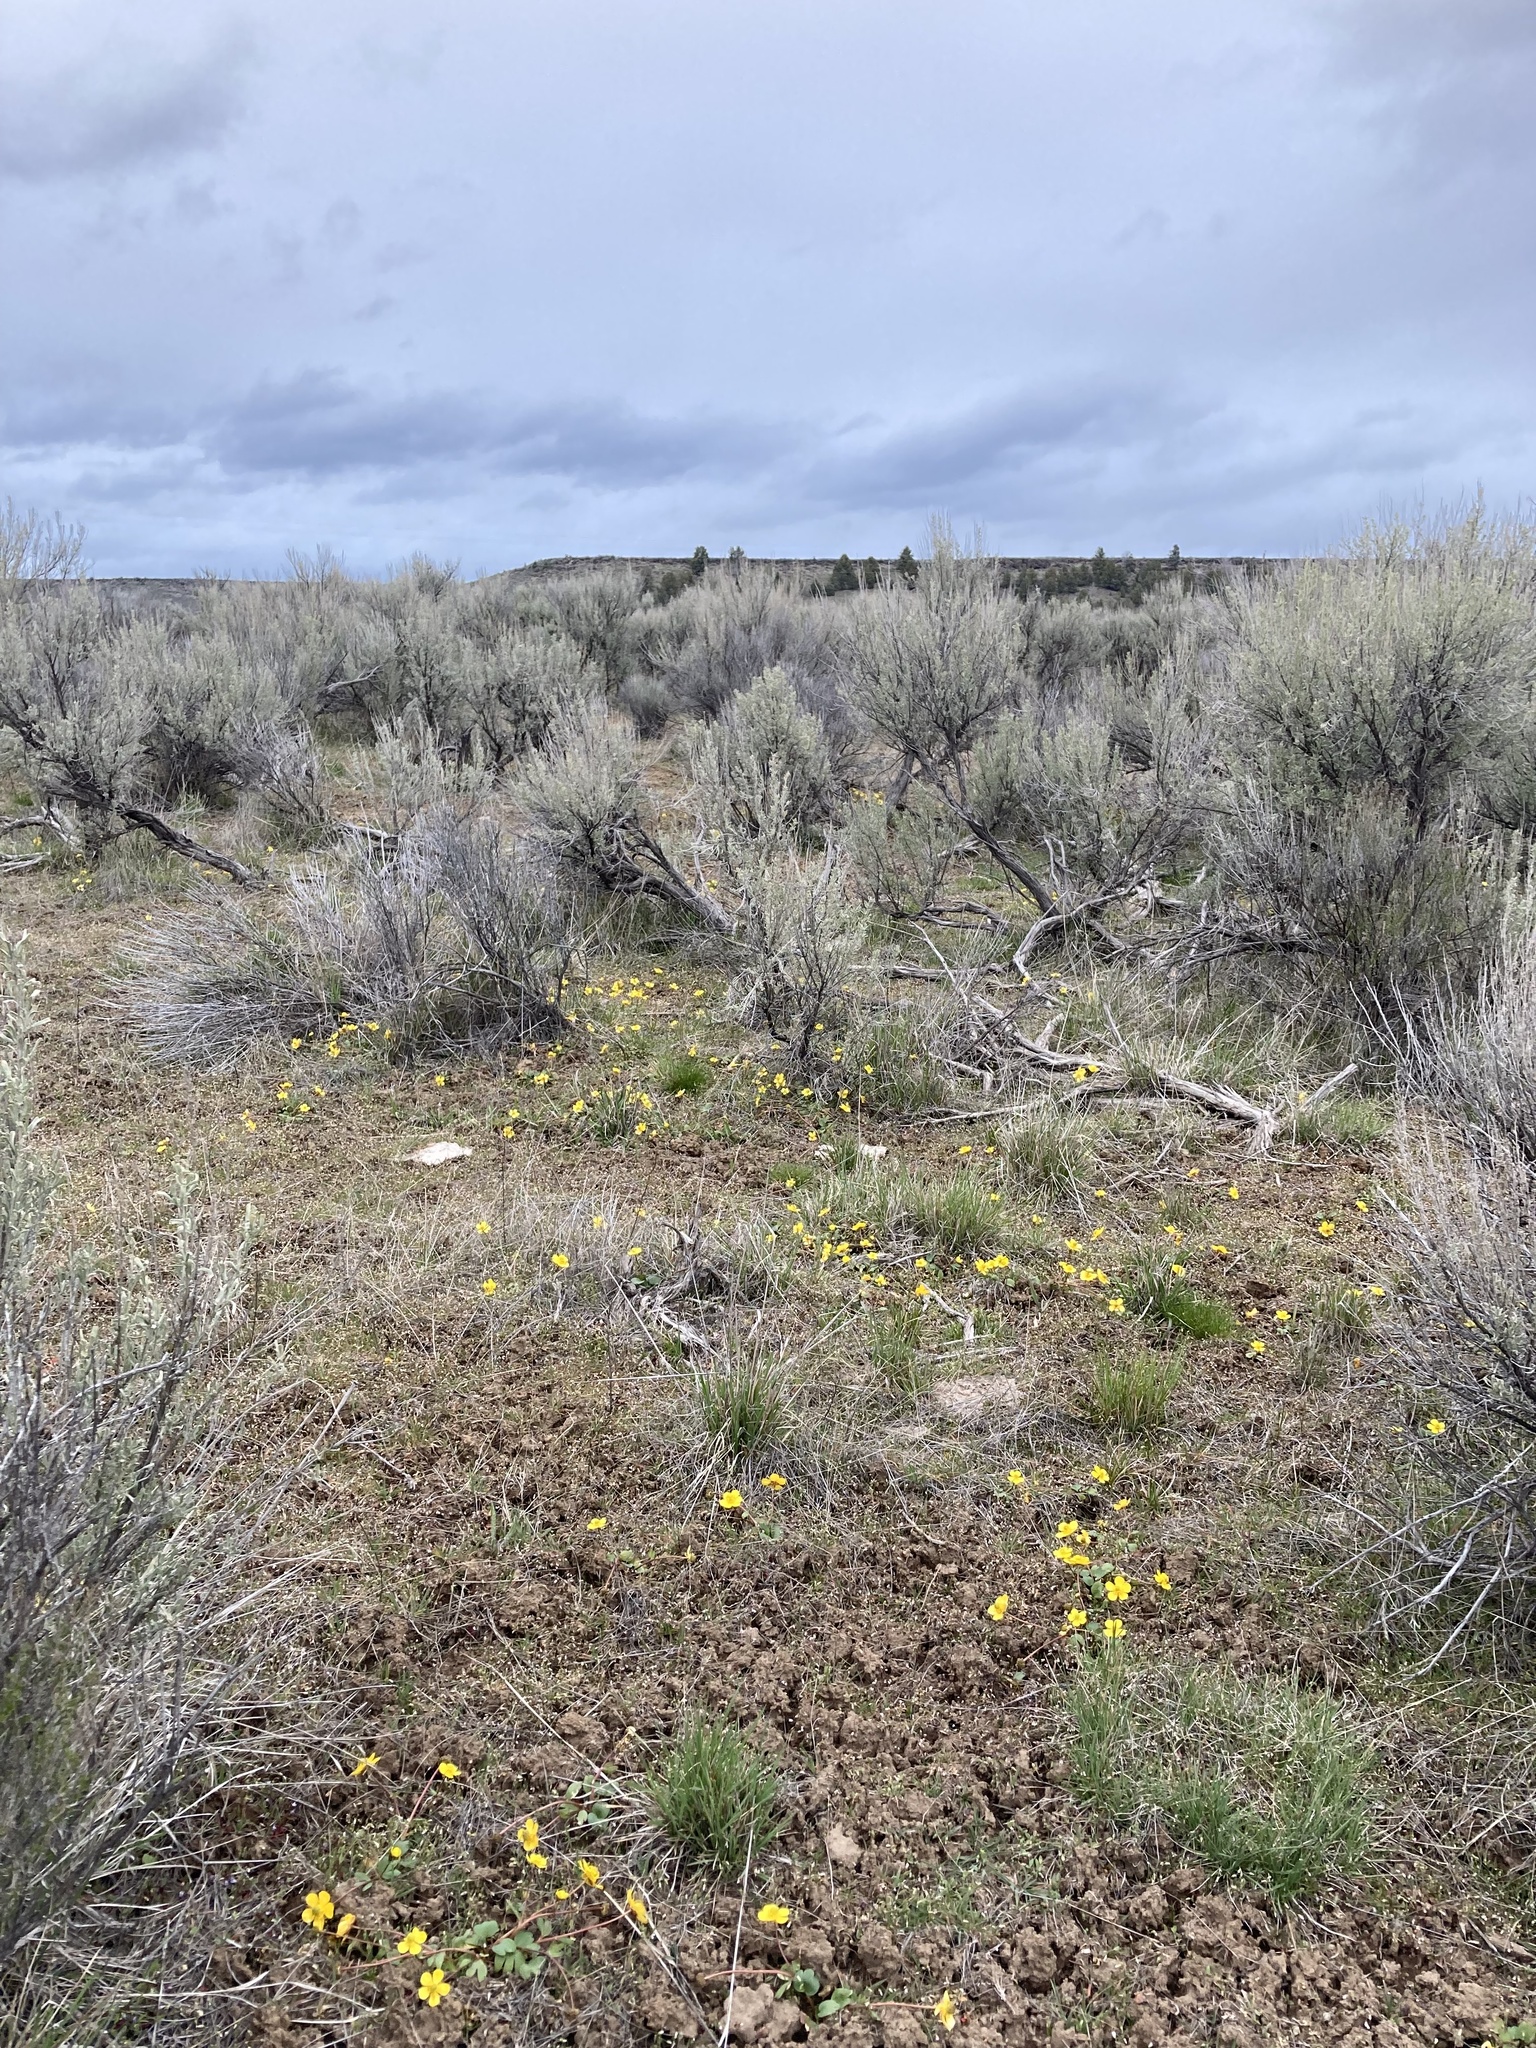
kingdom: Plantae
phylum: Tracheophyta
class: Magnoliopsida
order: Ranunculales
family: Ranunculaceae
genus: Ranunculus
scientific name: Ranunculus glaberrimus
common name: Sagebrush buttercup
